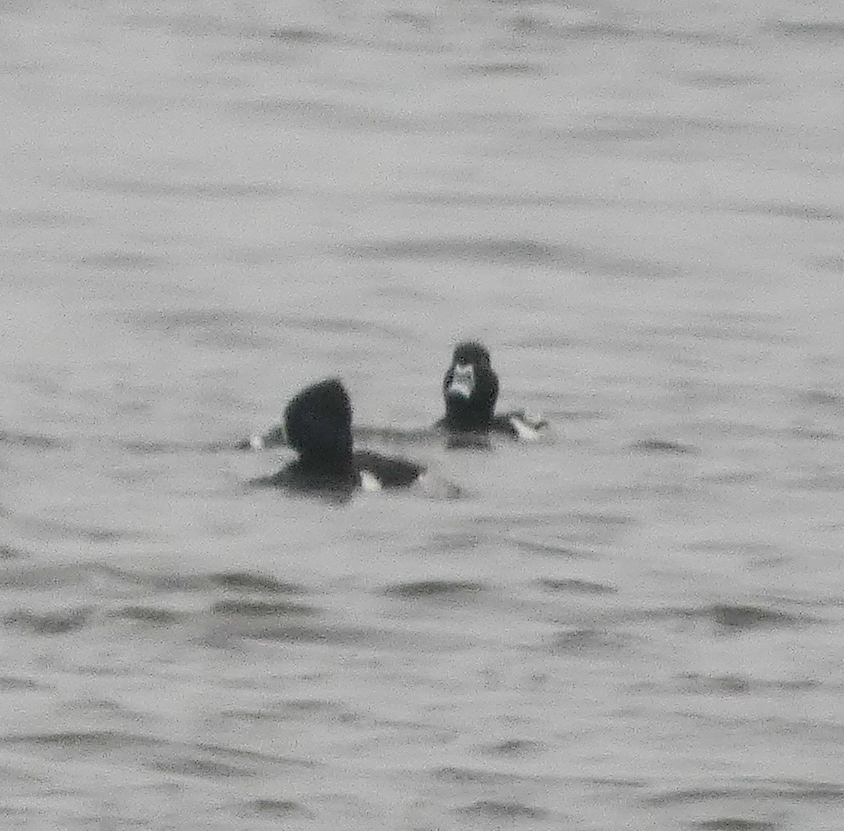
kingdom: Animalia
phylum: Chordata
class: Aves
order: Anseriformes
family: Anatidae
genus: Aythya
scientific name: Aythya collaris
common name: Ring-necked duck
